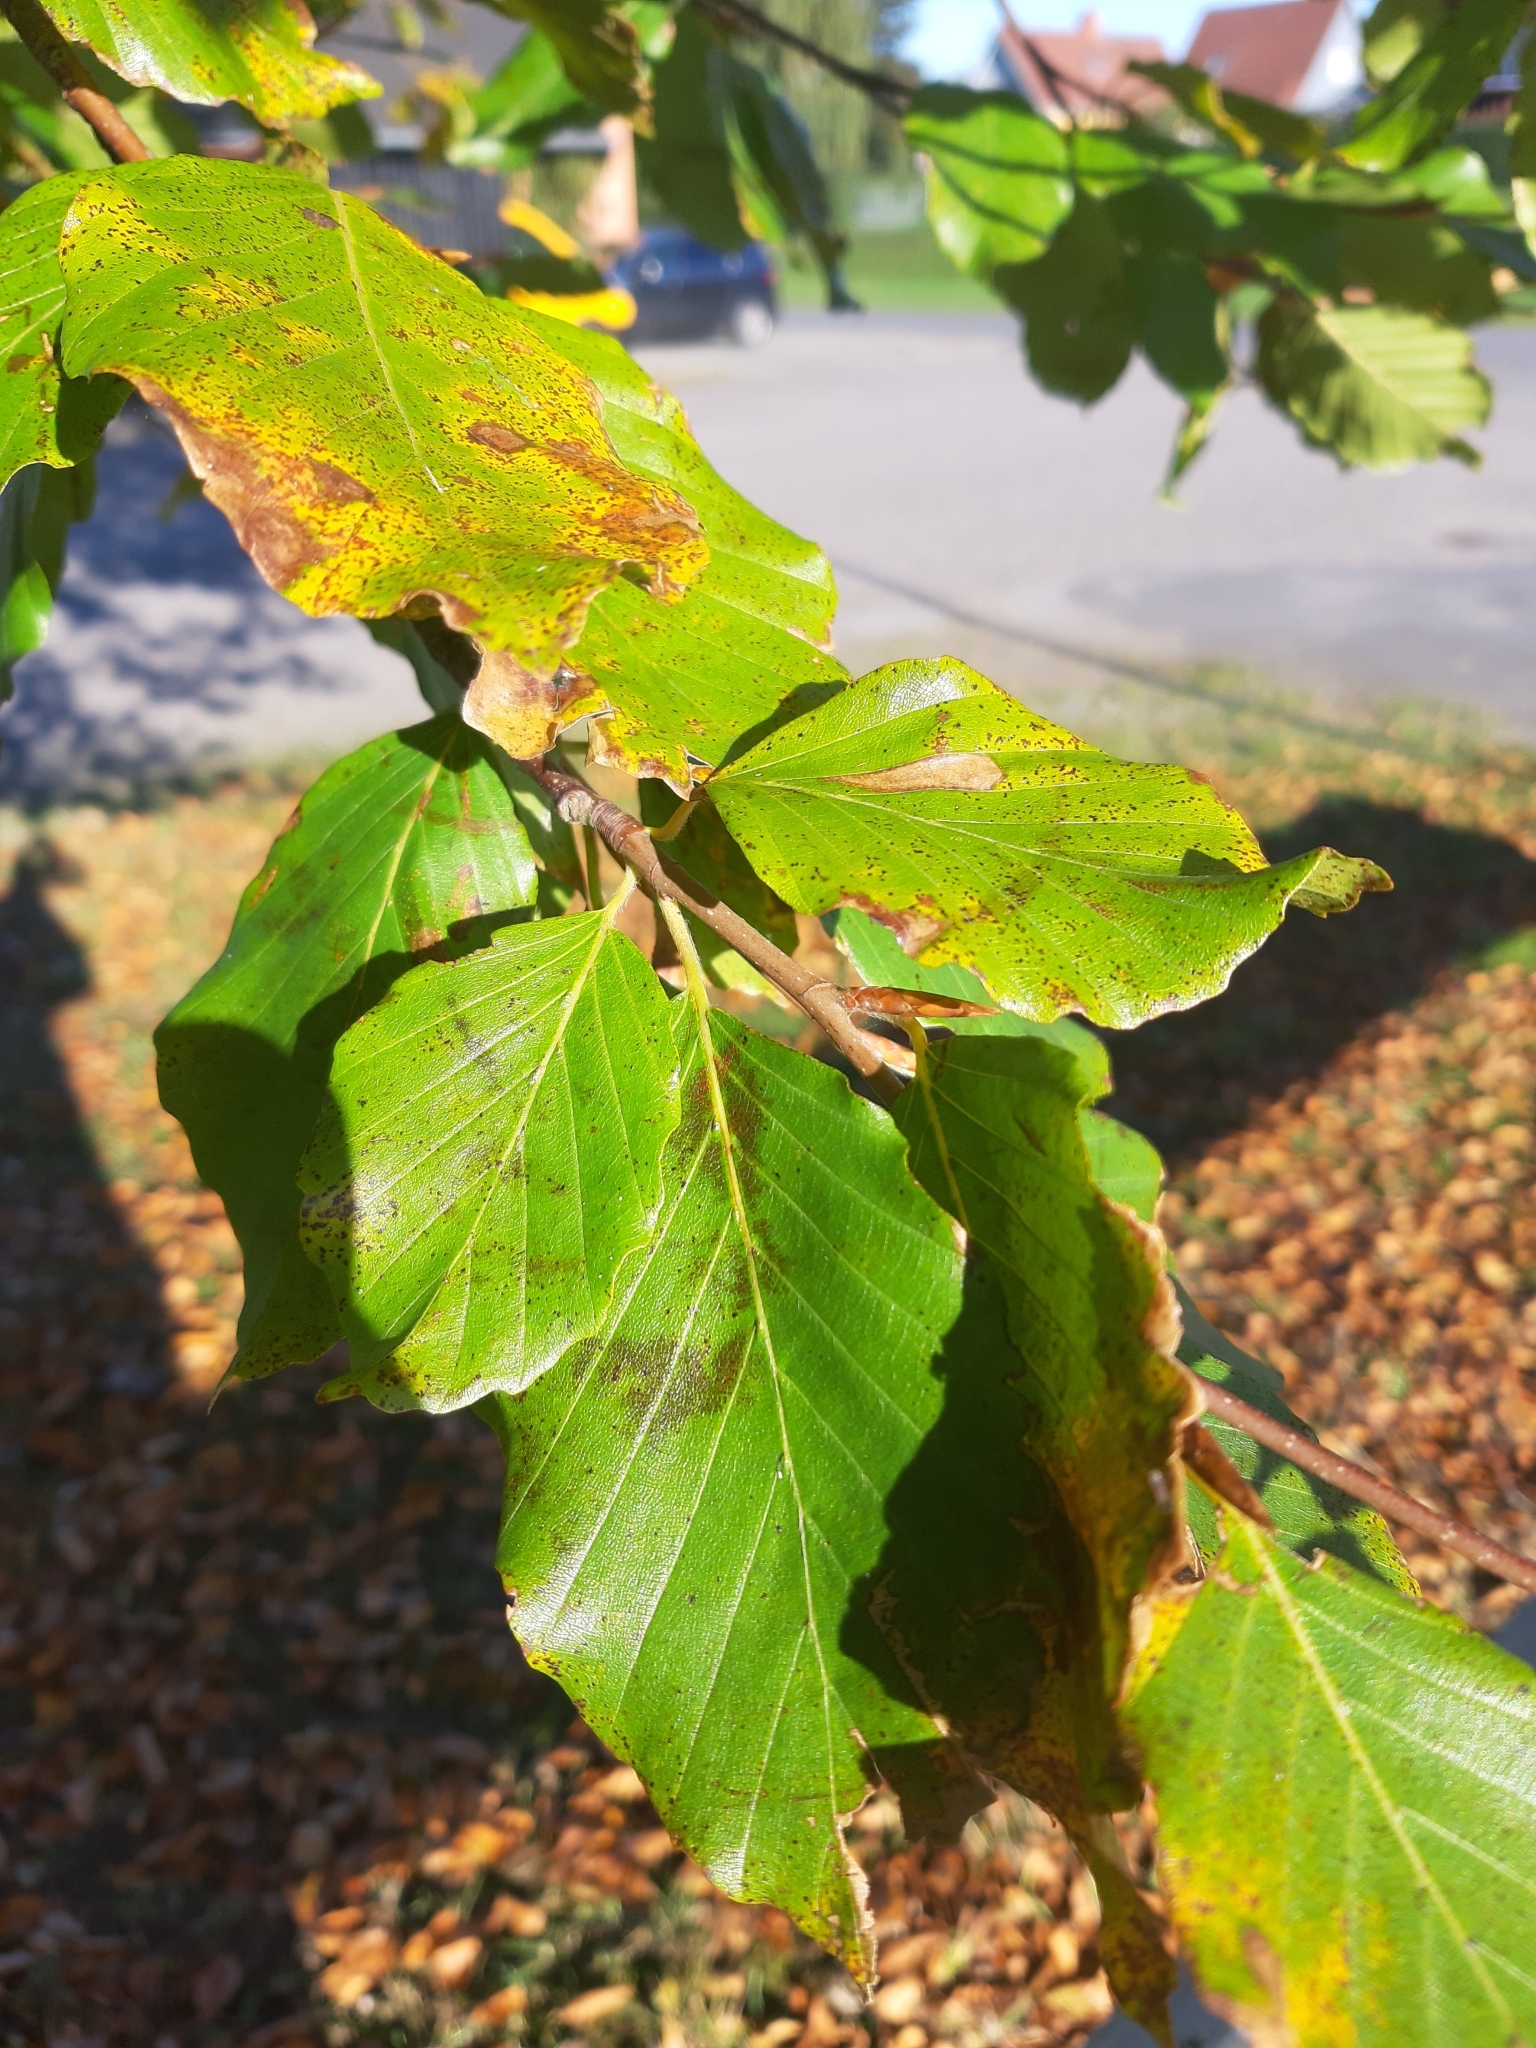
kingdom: Plantae
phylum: Tracheophyta
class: Magnoliopsida
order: Fagales
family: Fagaceae
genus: Fagus
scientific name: Fagus sylvatica
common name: Beech
